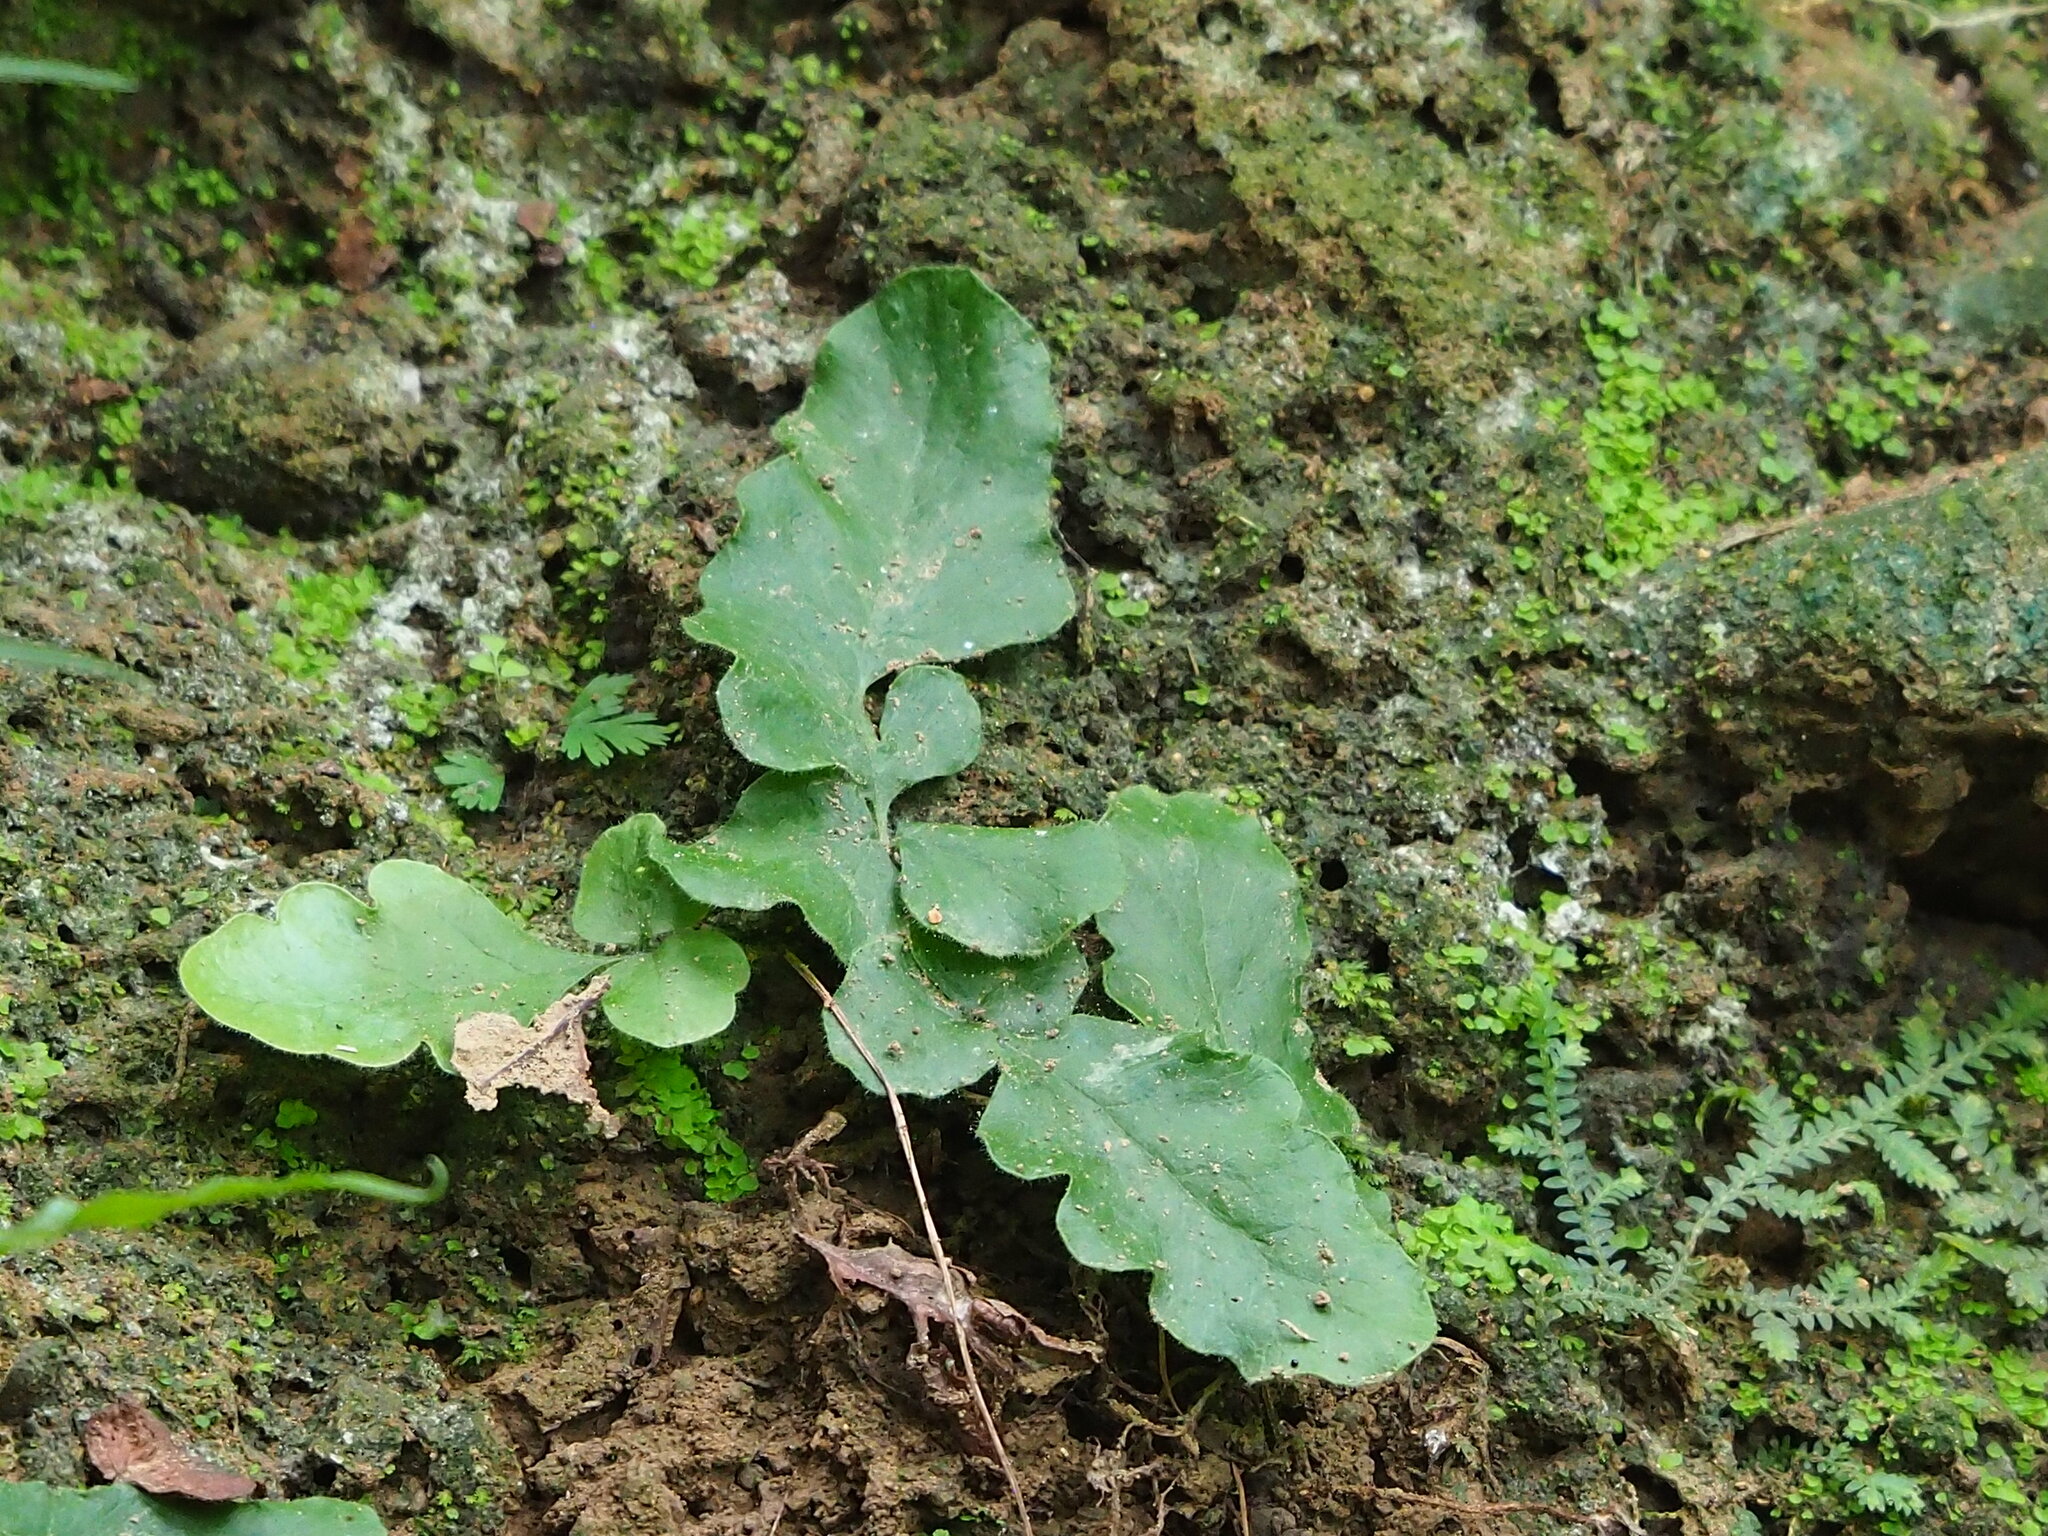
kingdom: Plantae
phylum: Tracheophyta
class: Polypodiopsida
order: Polypodiales
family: Tectariaceae
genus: Tectaria
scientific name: Tectaria zeilanica
